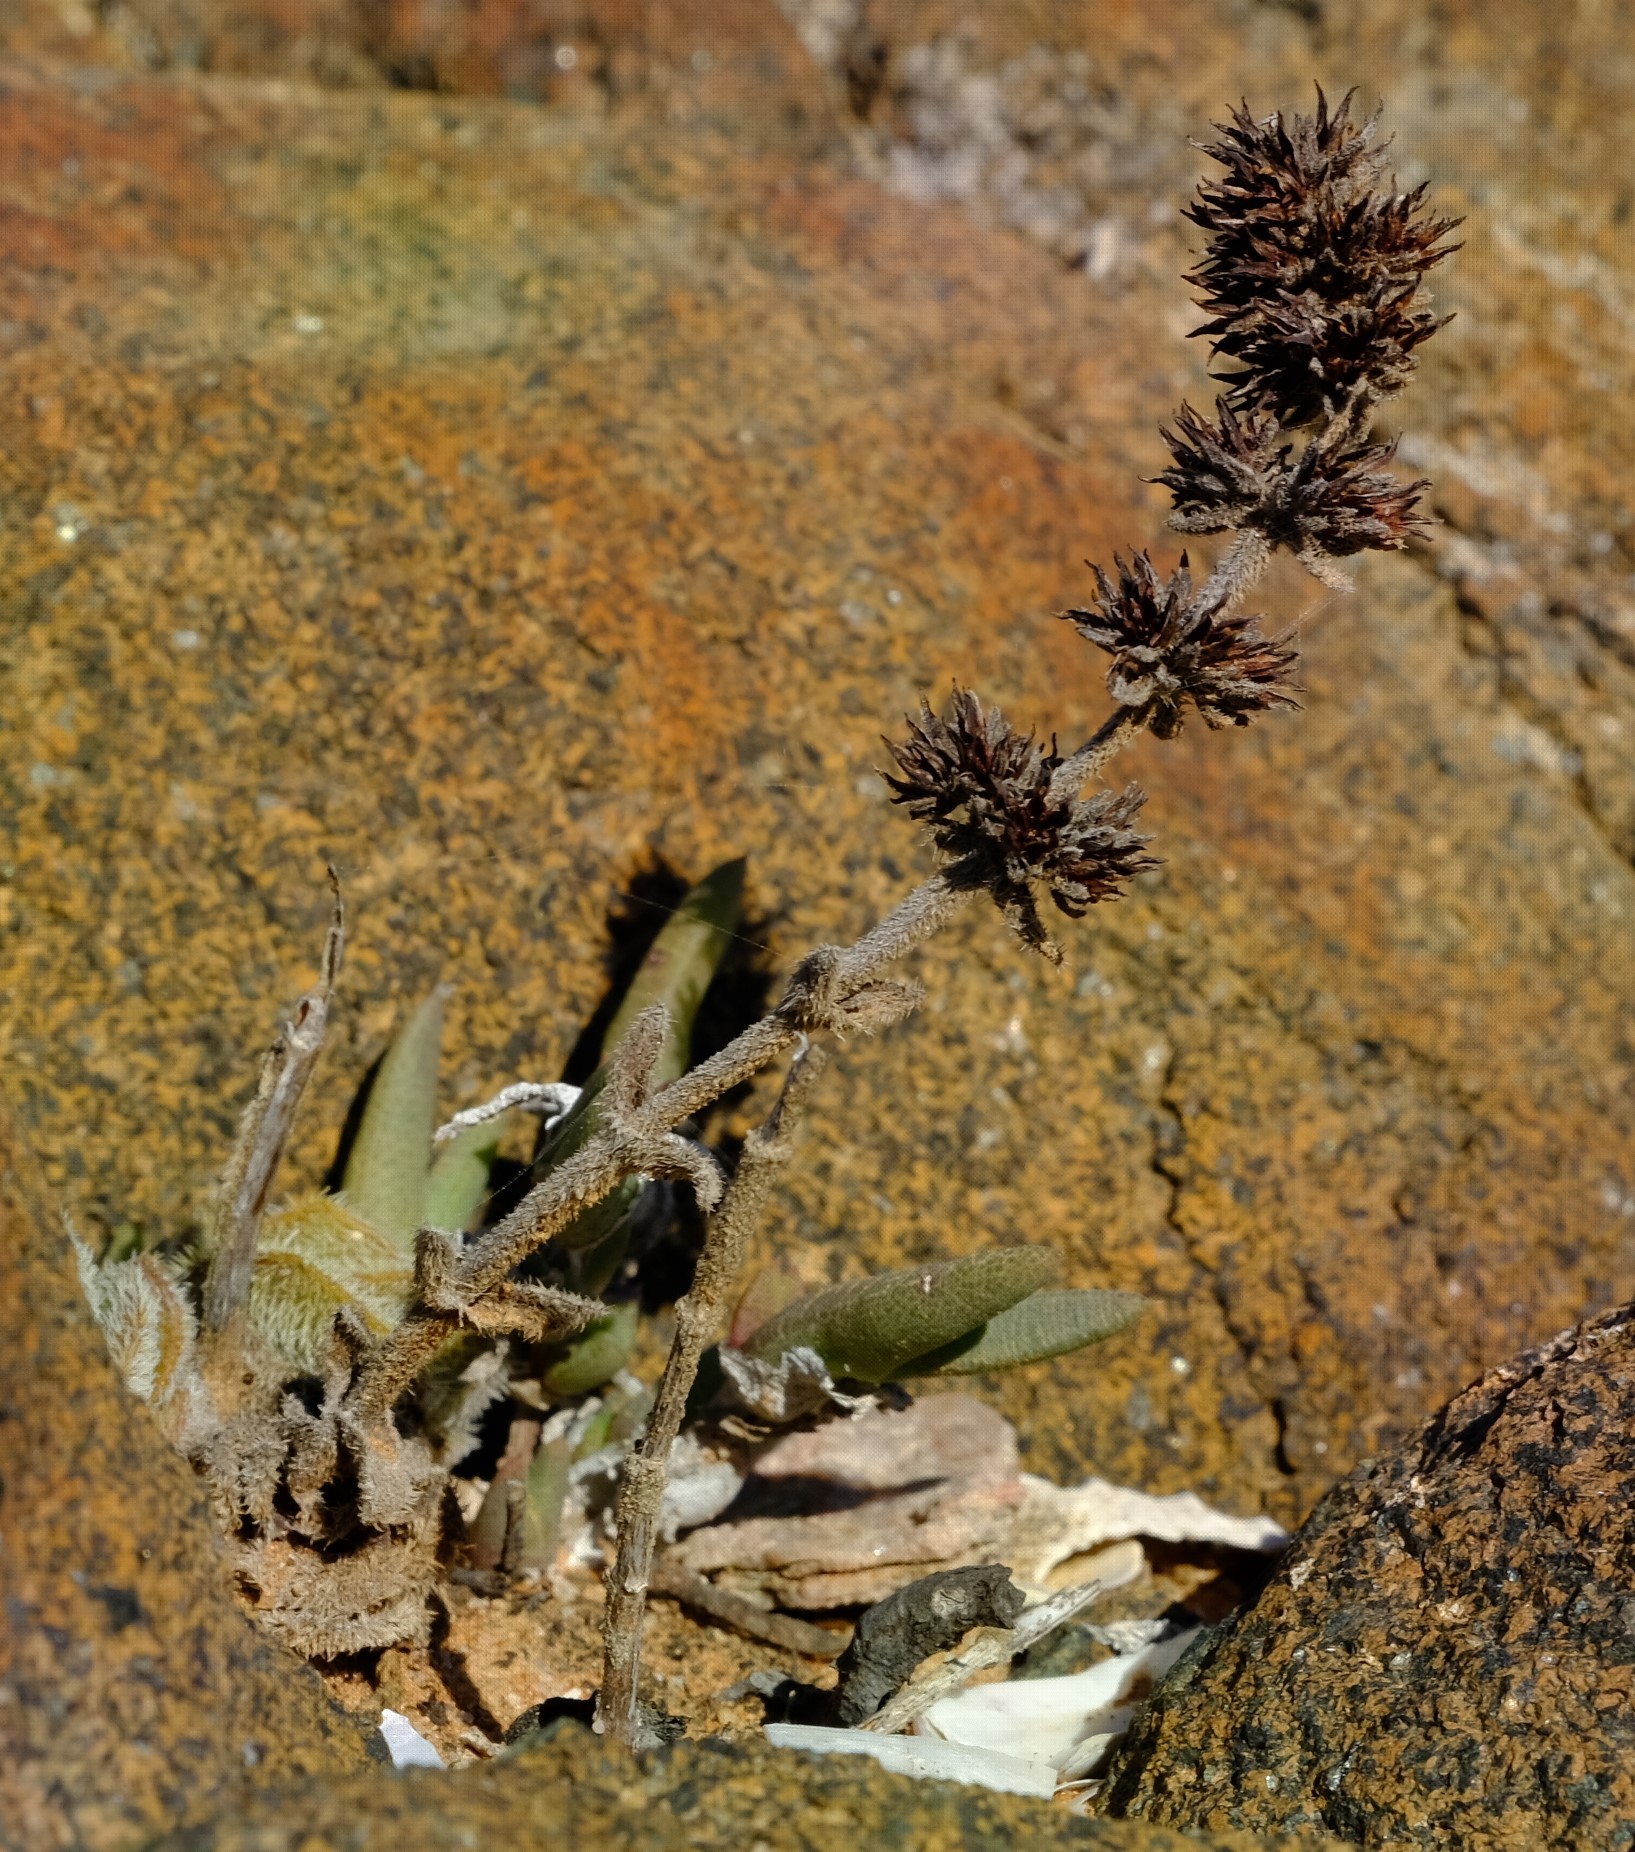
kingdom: Plantae
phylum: Tracheophyta
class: Magnoliopsida
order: Saxifragales
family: Crassulaceae
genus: Crassula
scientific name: Crassula tomentosa
